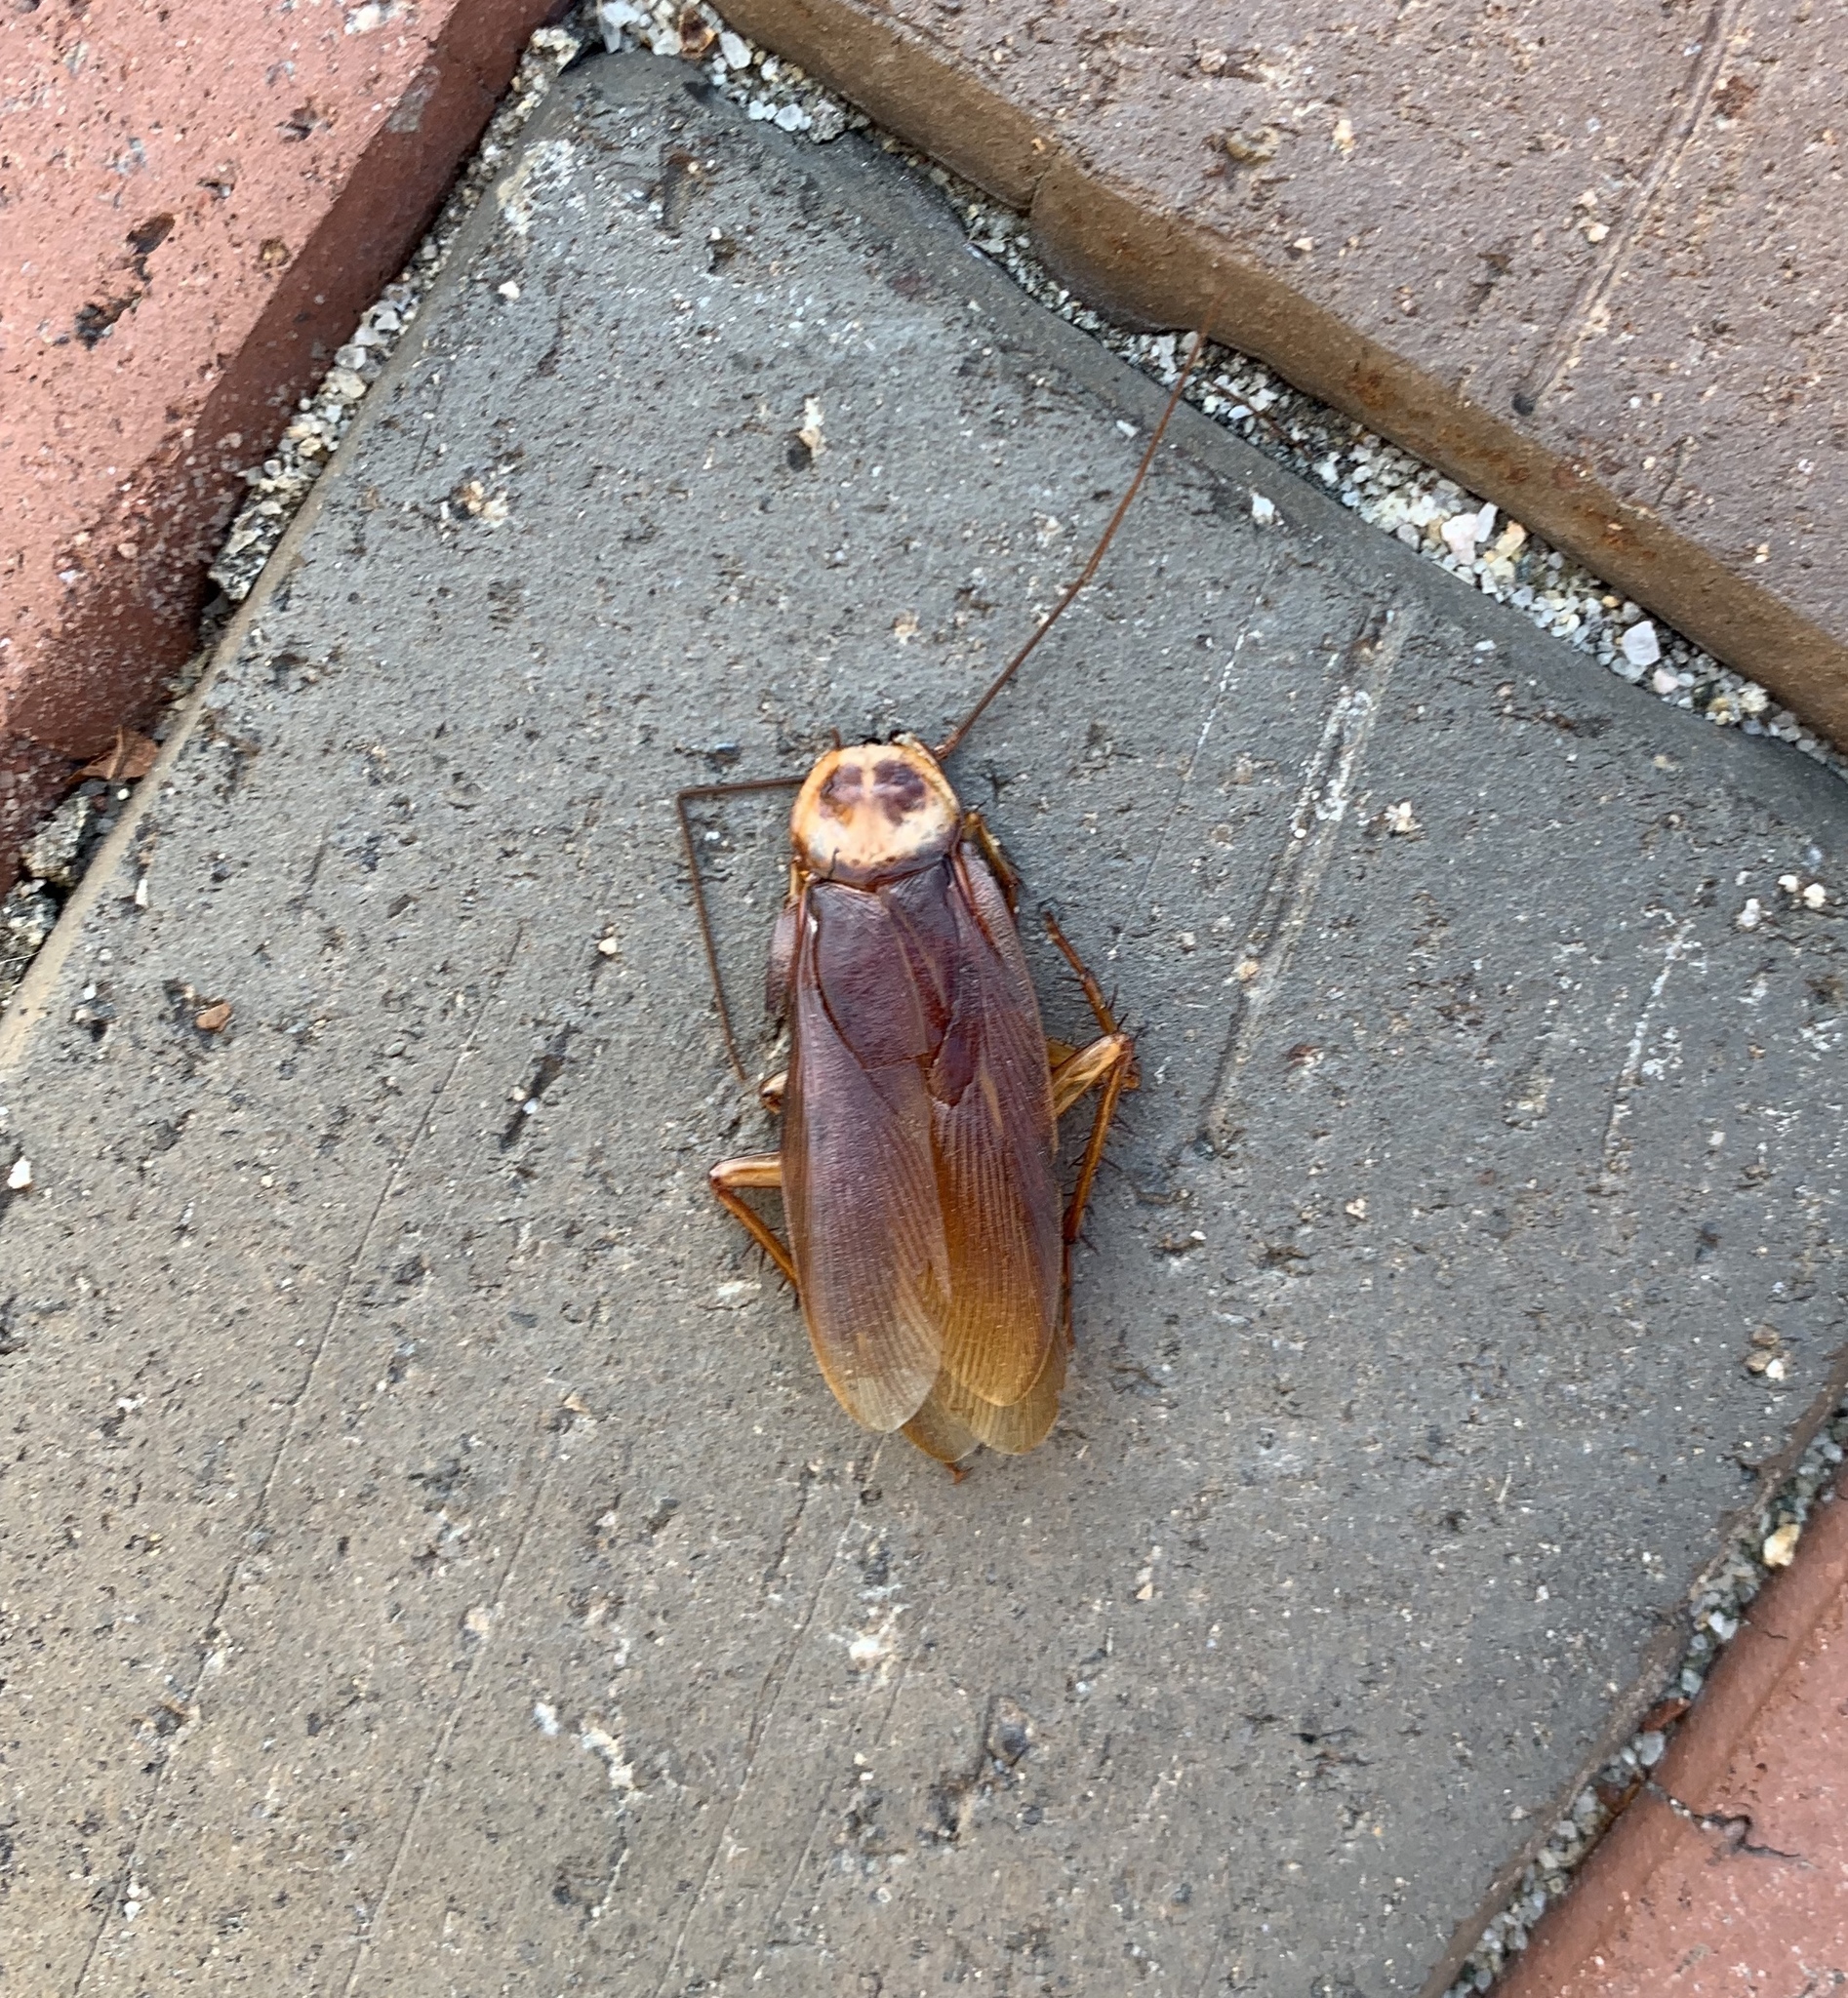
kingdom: Animalia
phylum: Arthropoda
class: Insecta
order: Blattodea
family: Blattidae
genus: Periplaneta
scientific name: Periplaneta americana
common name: American cockroach
